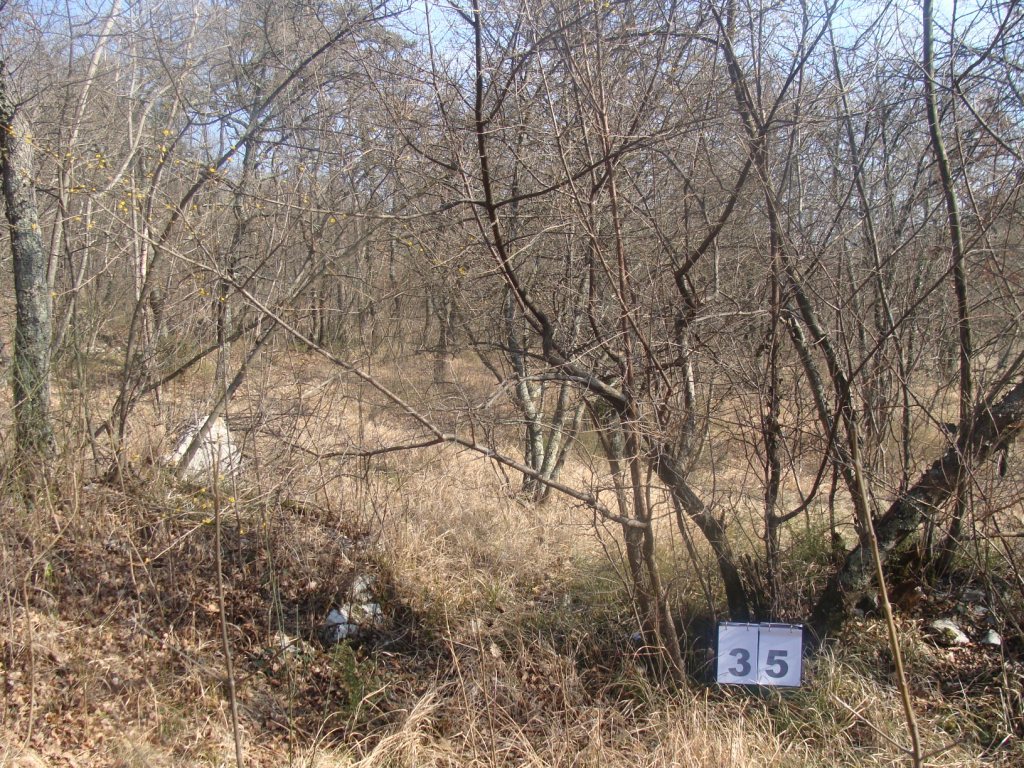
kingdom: Plantae
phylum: Tracheophyta
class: Magnoliopsida
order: Cornales
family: Cornaceae
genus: Cornus
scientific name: Cornus mas
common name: Cornelian-cherry
